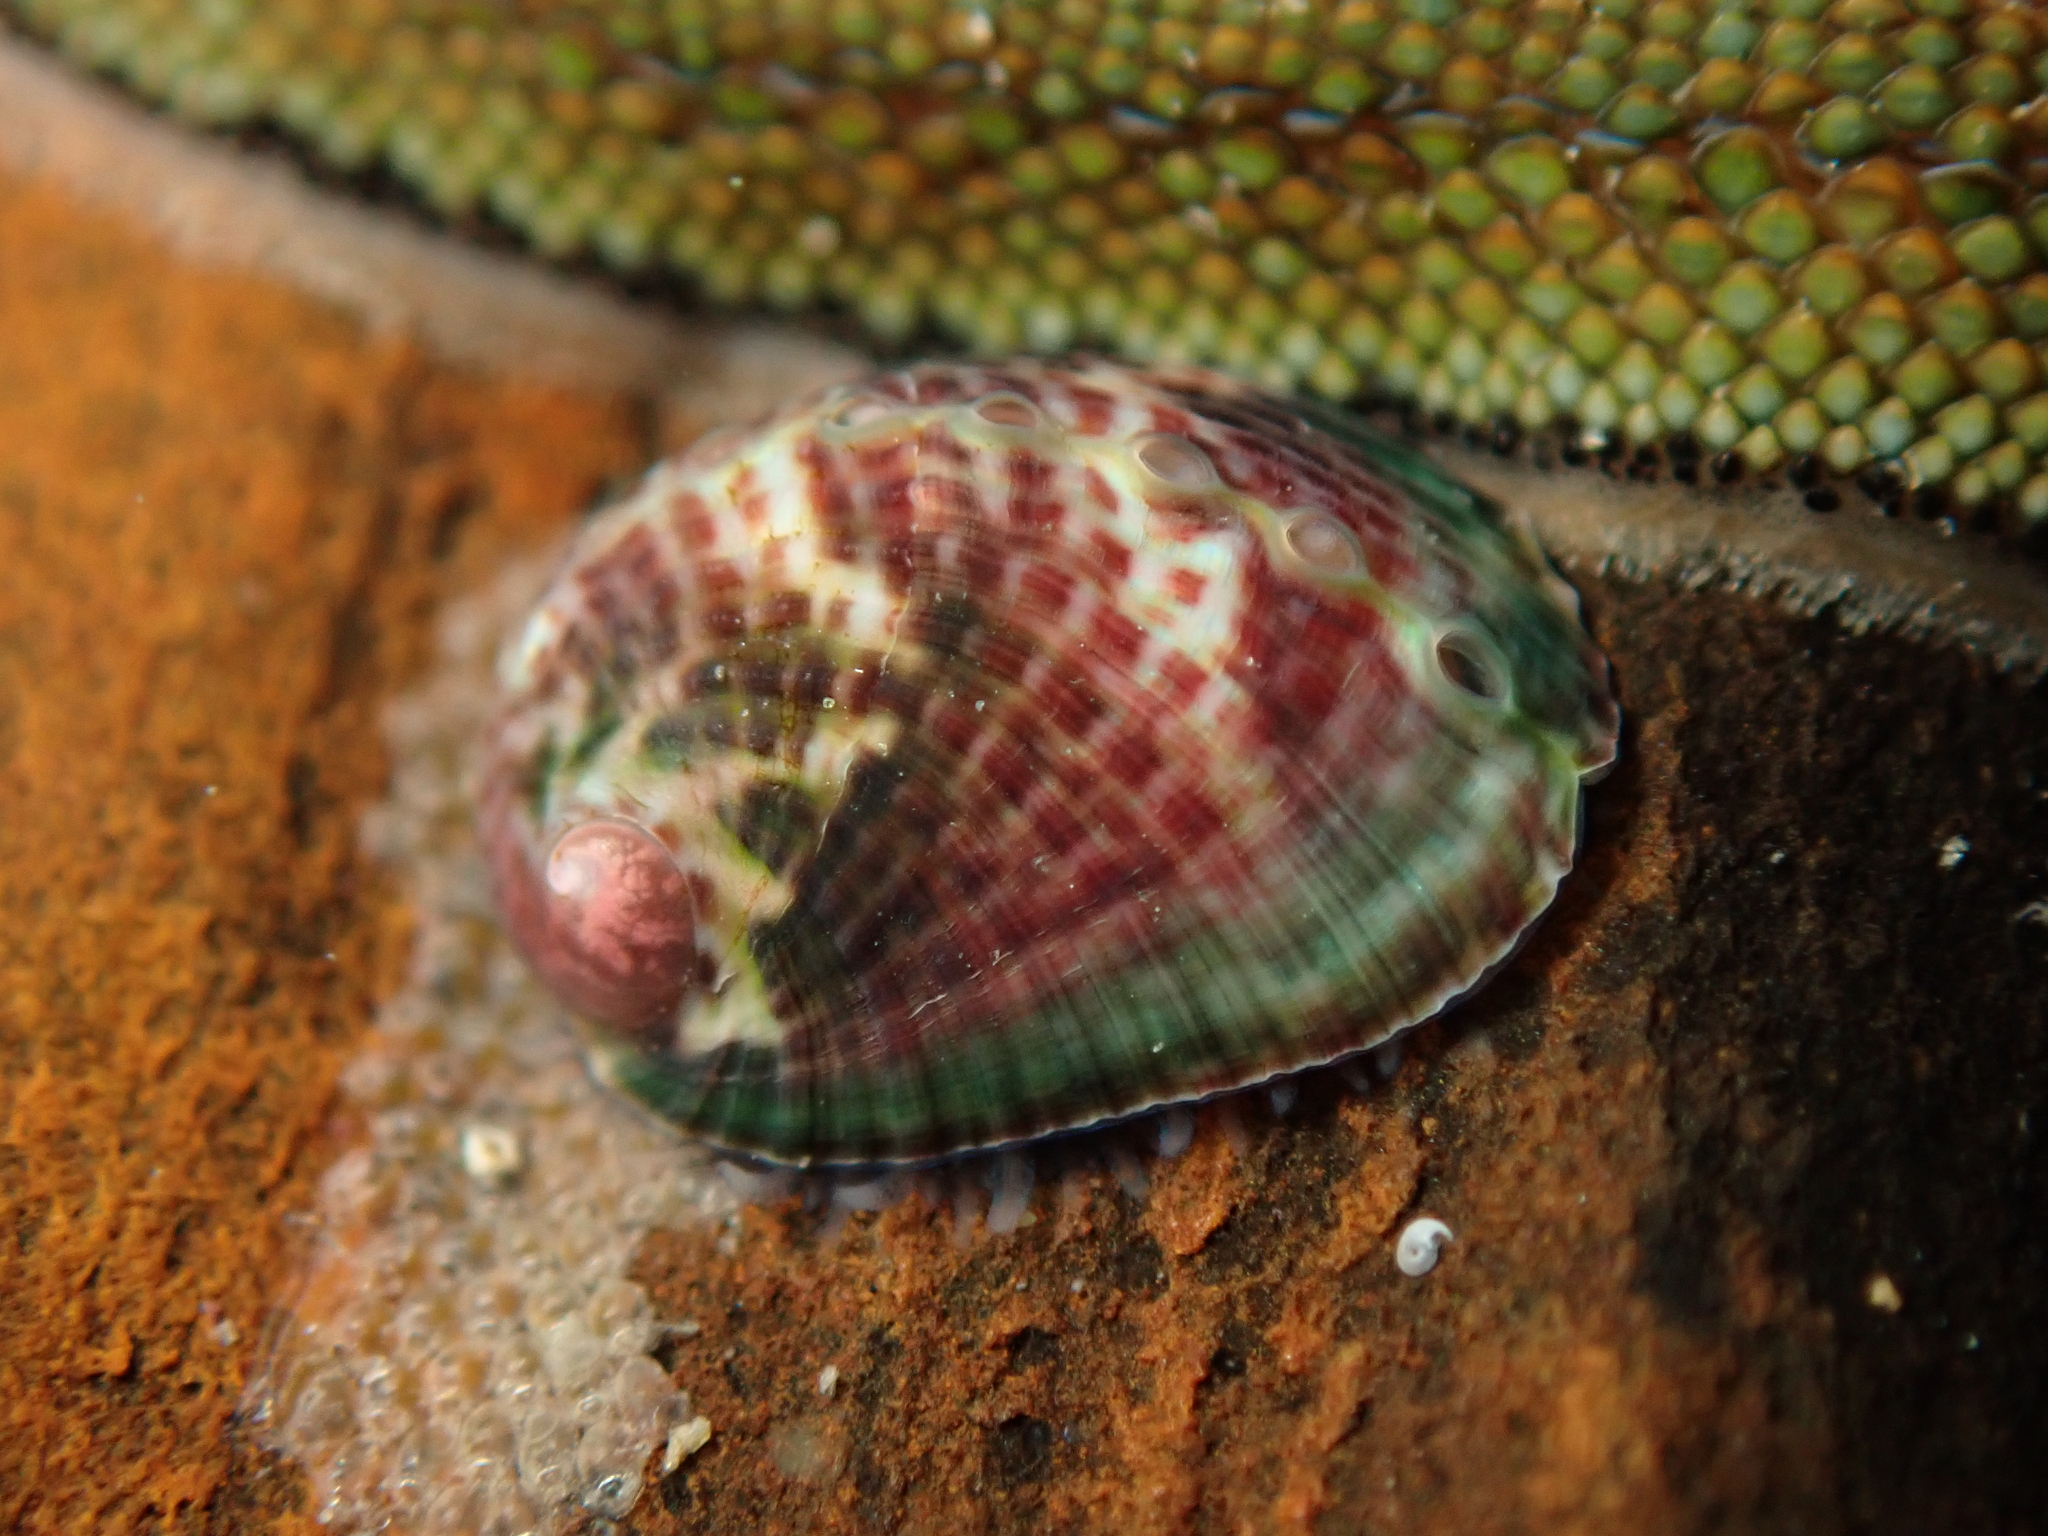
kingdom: Animalia
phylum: Mollusca
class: Gastropoda
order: Lepetellida
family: Haliotidae
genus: Haliotis
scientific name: Haliotis virginea
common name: Whitefoot paua
